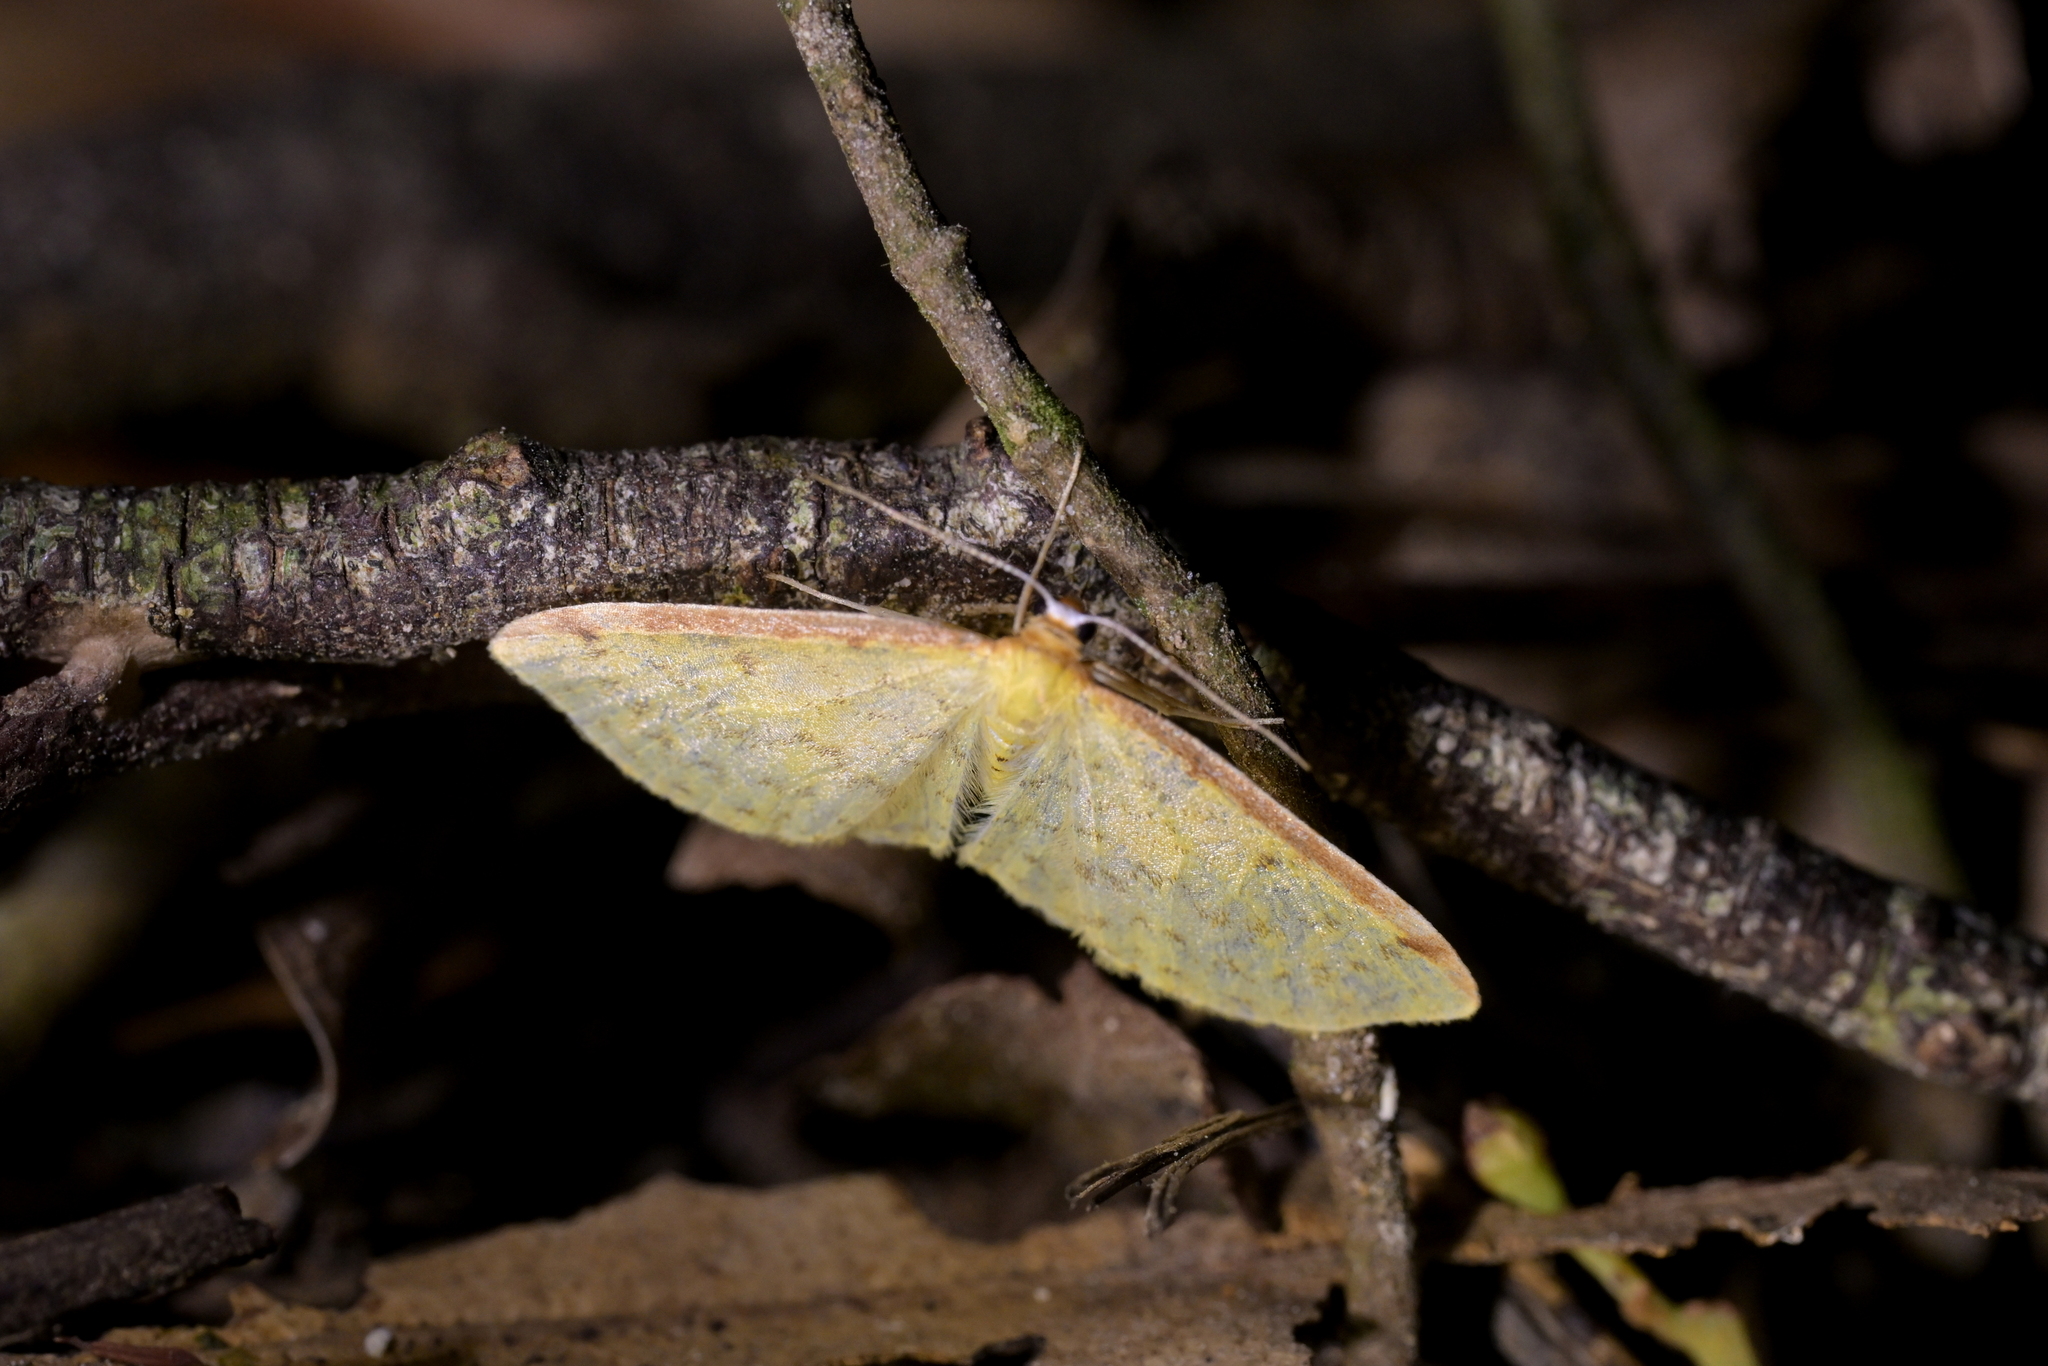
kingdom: Animalia
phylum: Arthropoda
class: Insecta
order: Lepidoptera
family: Geometridae
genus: Epiphryne
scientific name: Epiphryne undosata
